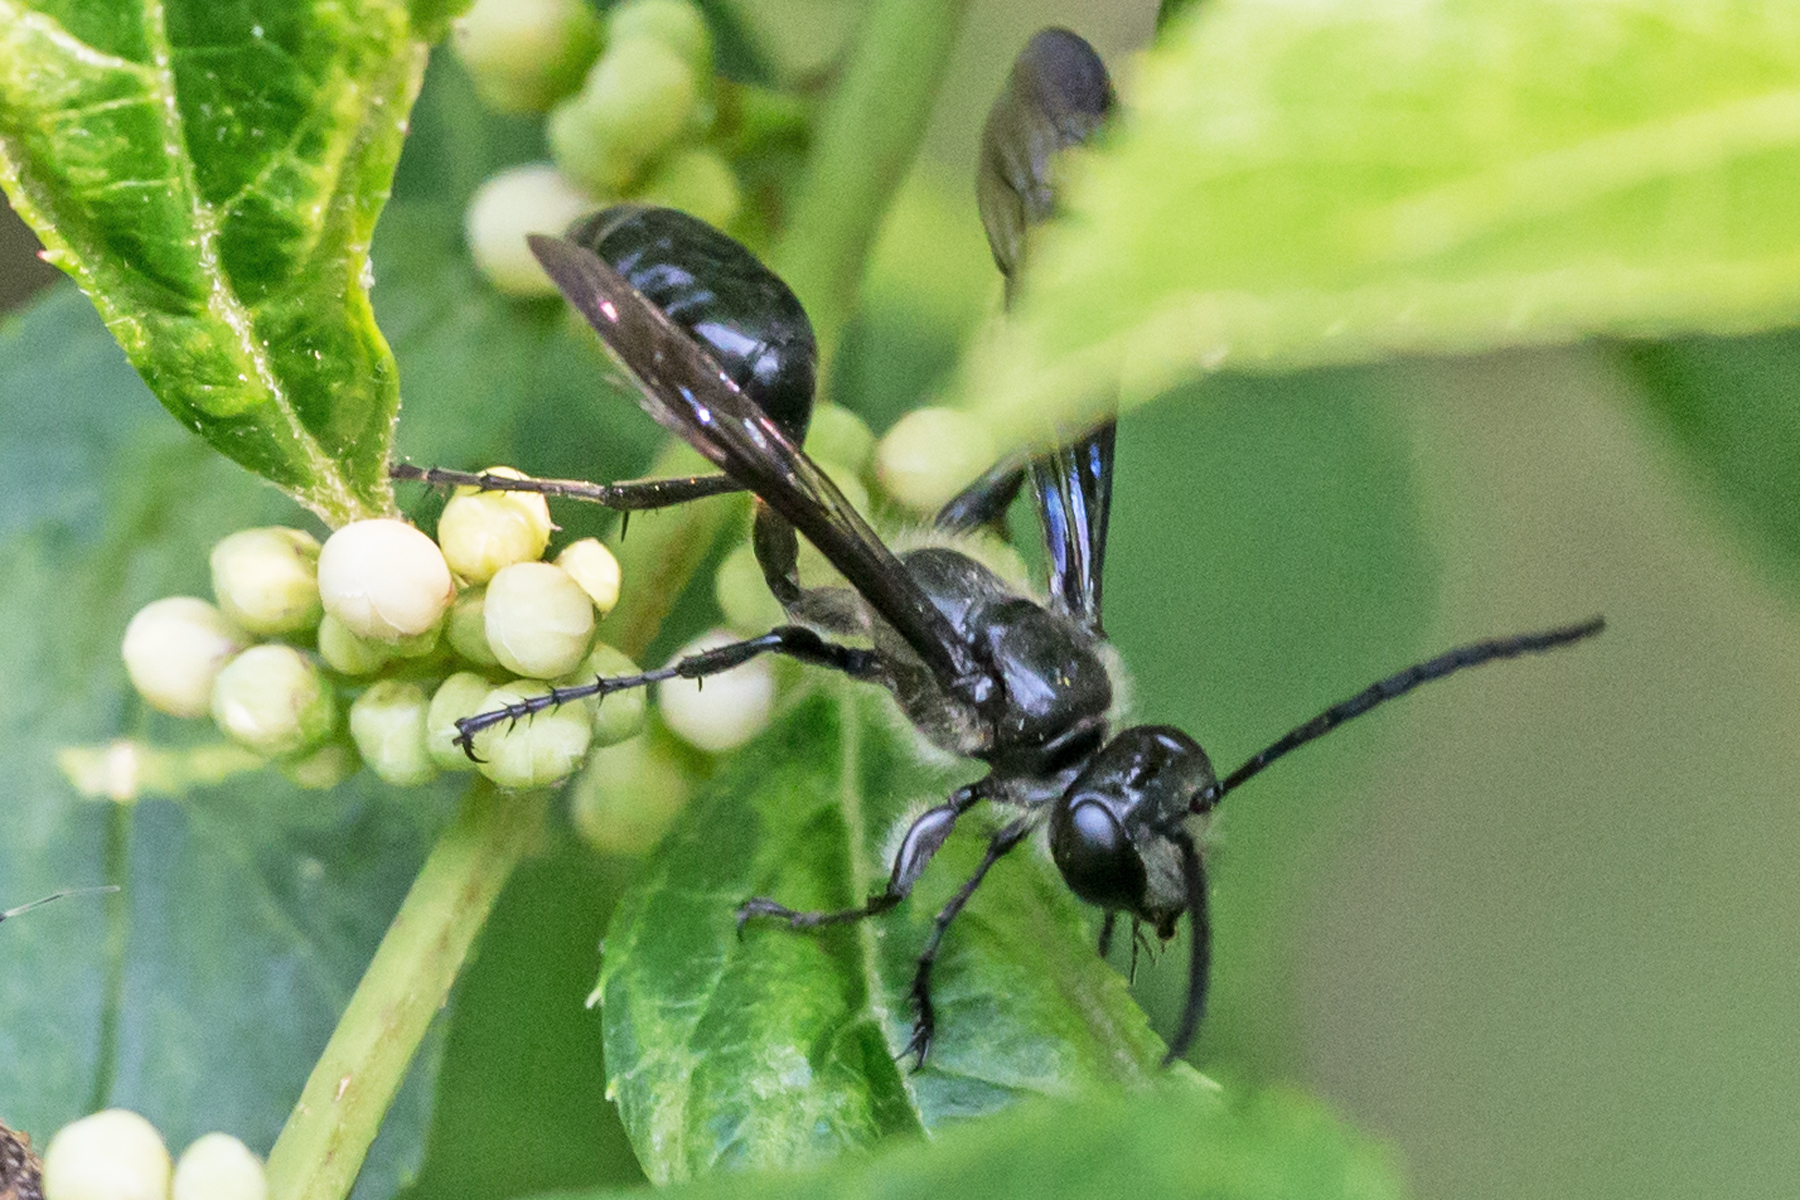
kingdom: Animalia
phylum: Arthropoda
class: Insecta
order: Hymenoptera
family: Sphecidae
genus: Isodontia
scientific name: Isodontia mexicana
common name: Mud dauber
